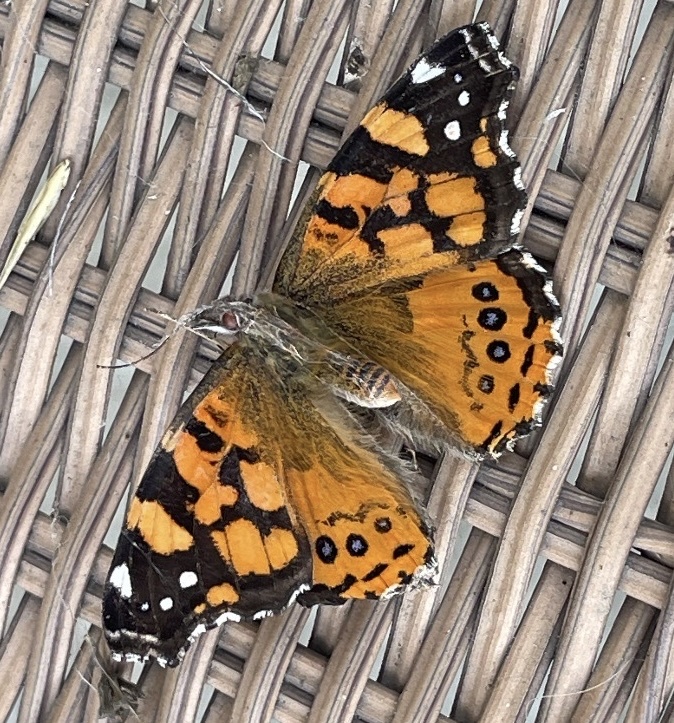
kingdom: Animalia
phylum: Arthropoda
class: Insecta
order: Lepidoptera
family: Nymphalidae
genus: Vanessa
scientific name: Vanessa annabella
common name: West coast lady
